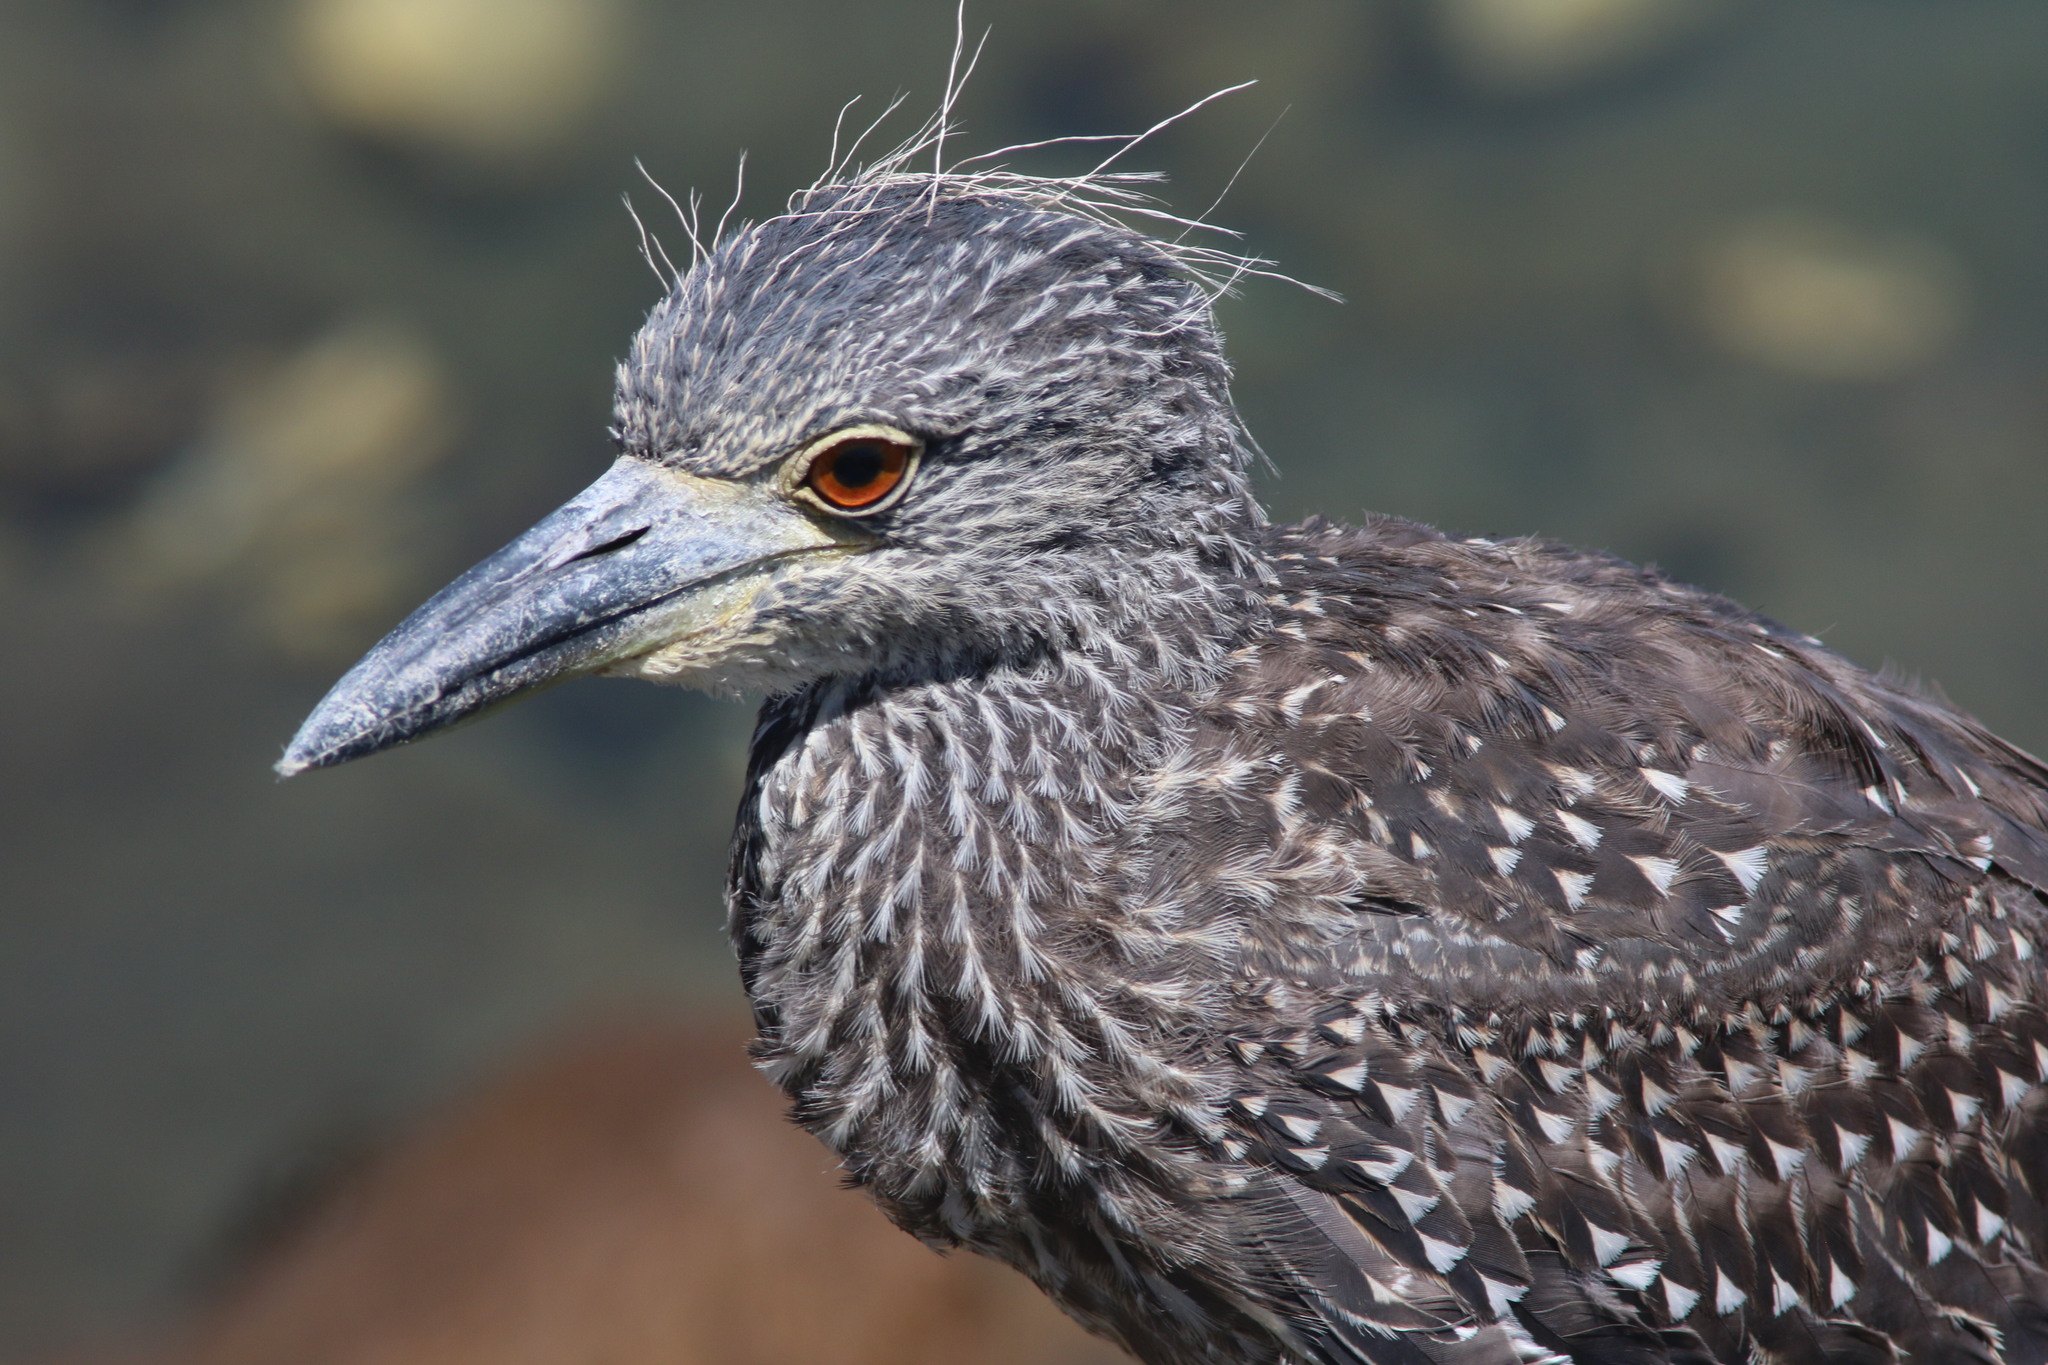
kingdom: Animalia
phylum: Chordata
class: Aves
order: Pelecaniformes
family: Ardeidae
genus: Nyctanassa
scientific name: Nyctanassa violacea
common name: Yellow-crowned night heron
